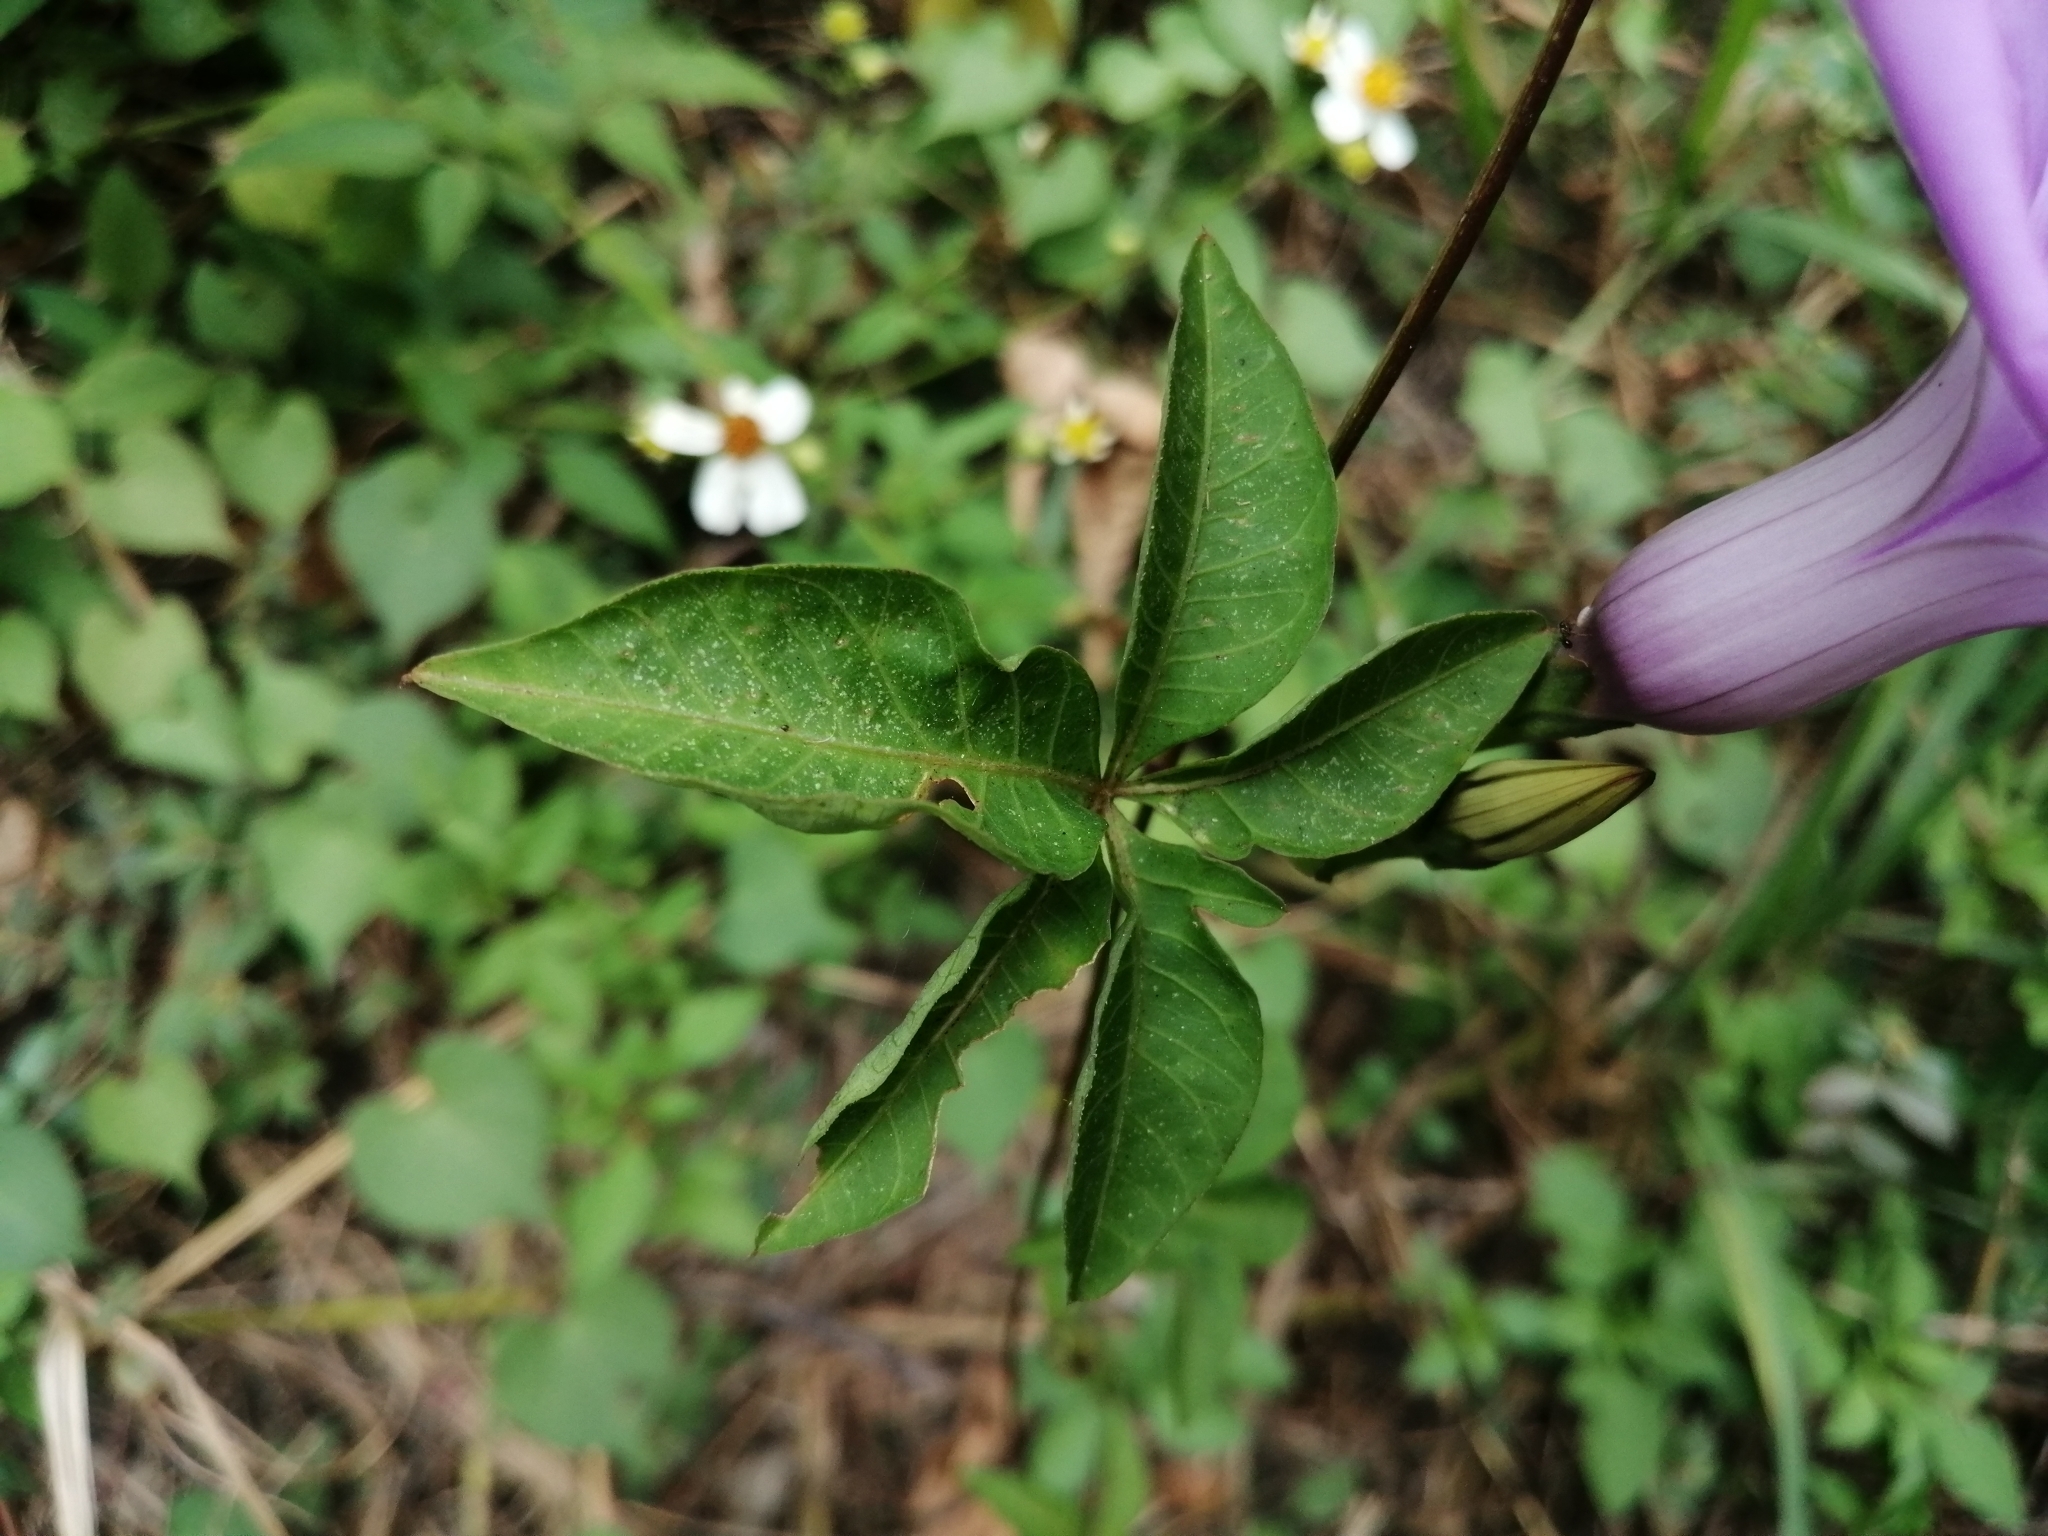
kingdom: Plantae
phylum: Tracheophyta
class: Magnoliopsida
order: Solanales
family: Convolvulaceae
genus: Ipomoea
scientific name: Ipomoea cairica
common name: Mile a minute vine
